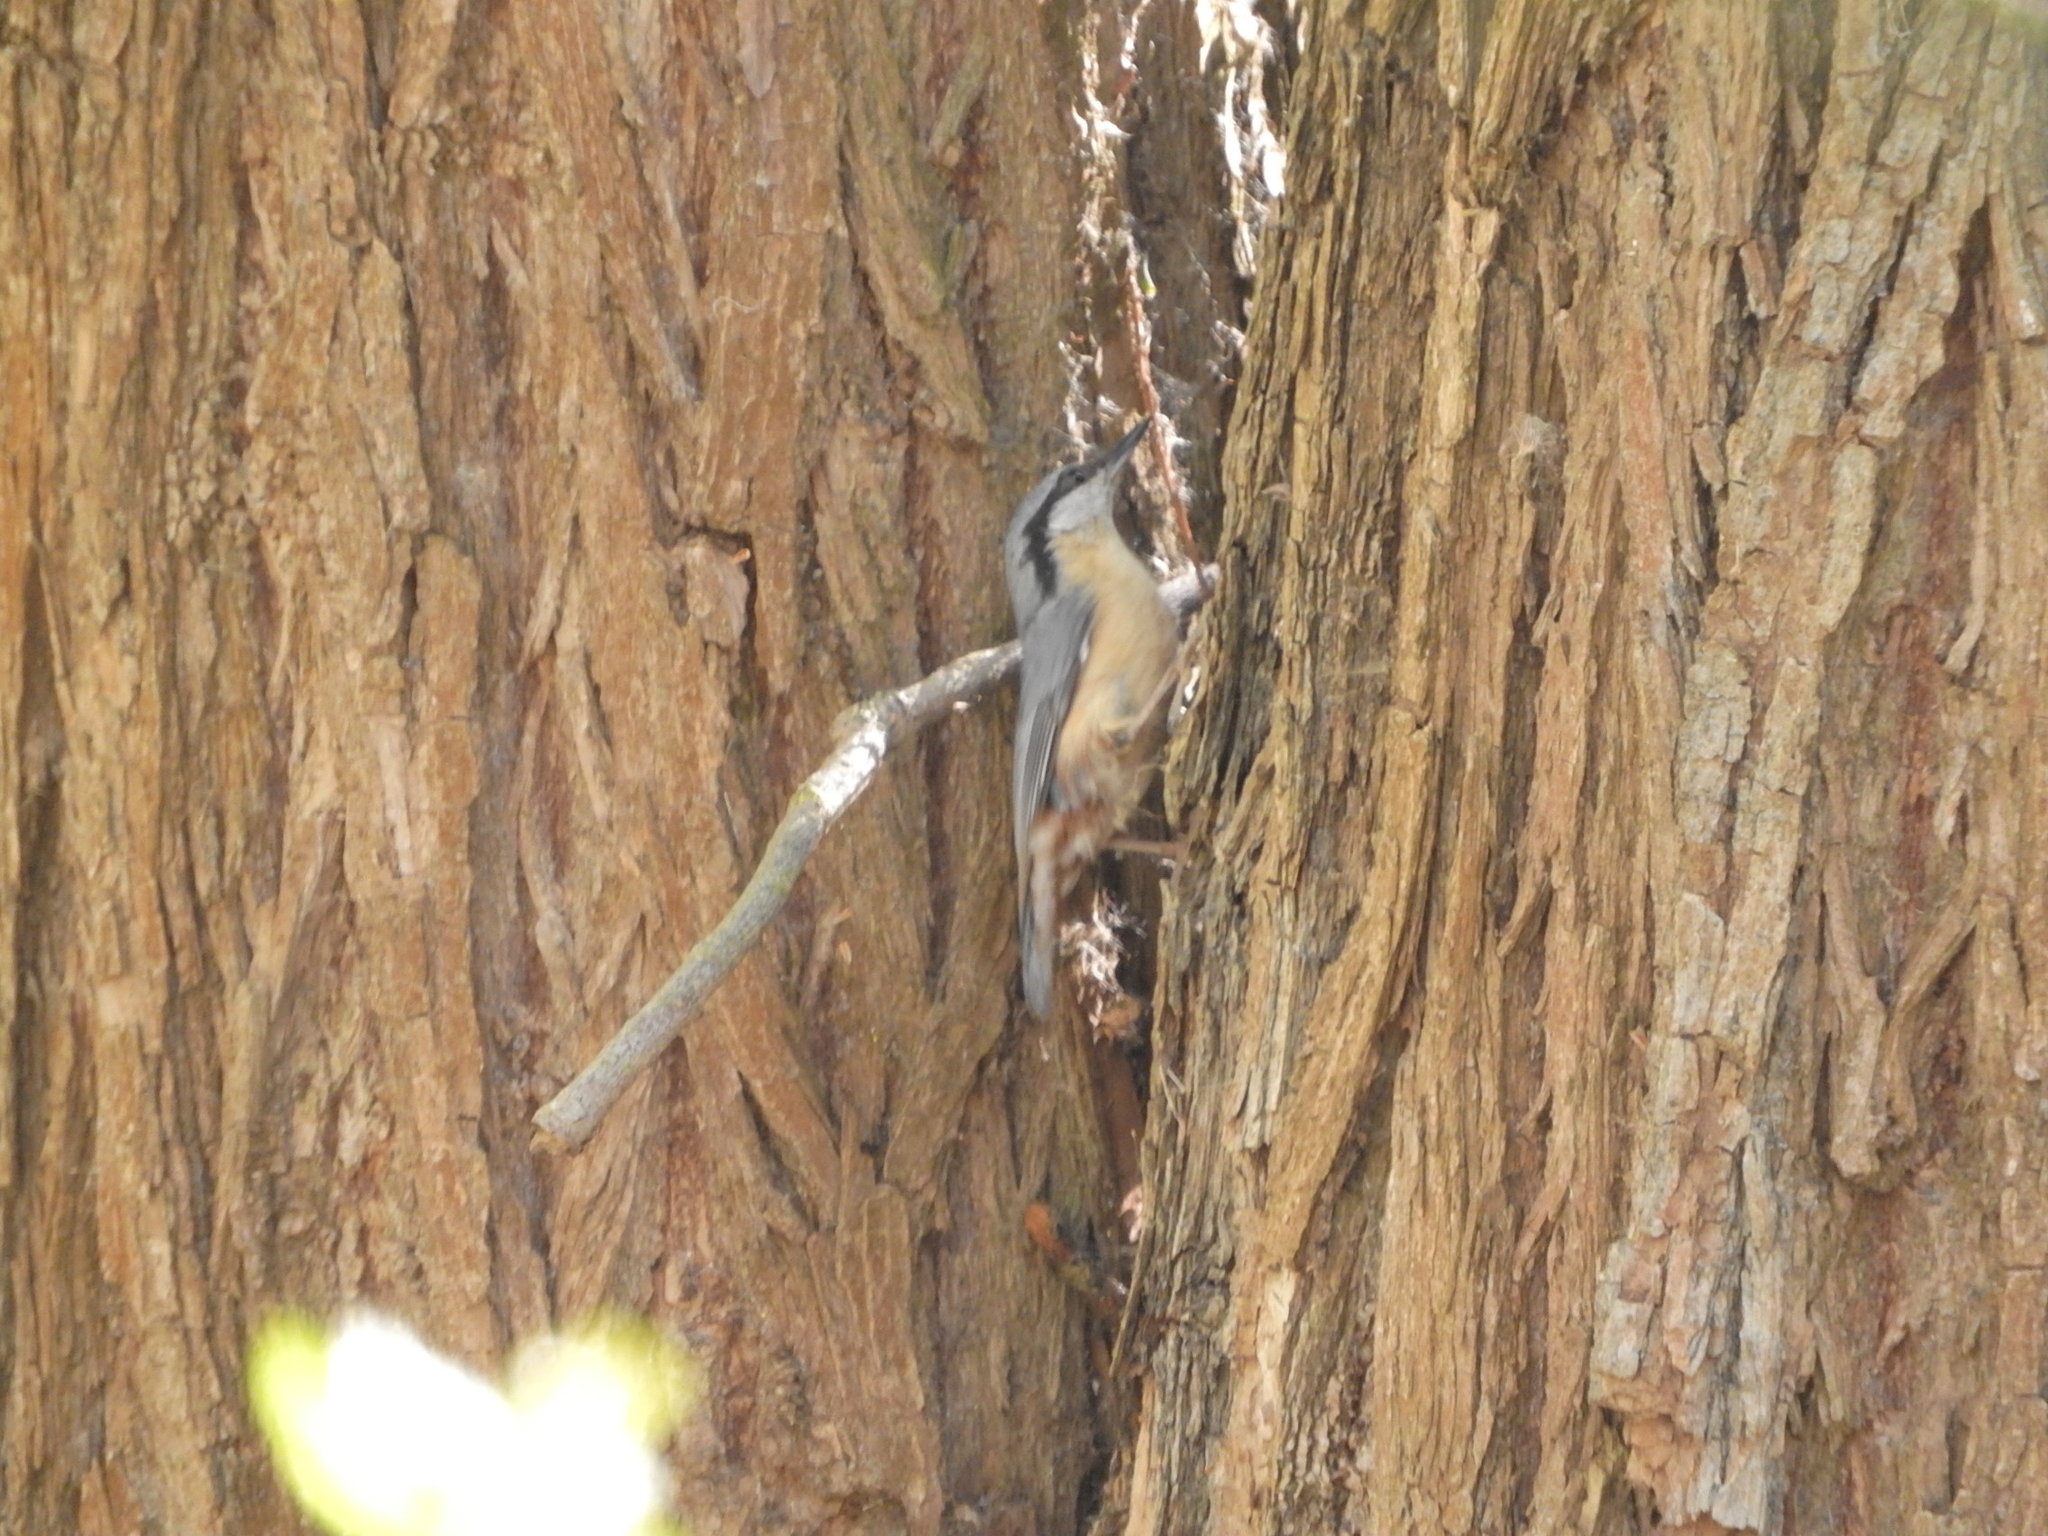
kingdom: Animalia
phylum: Chordata
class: Aves
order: Passeriformes
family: Sittidae
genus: Sitta
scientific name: Sitta europaea
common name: Eurasian nuthatch
